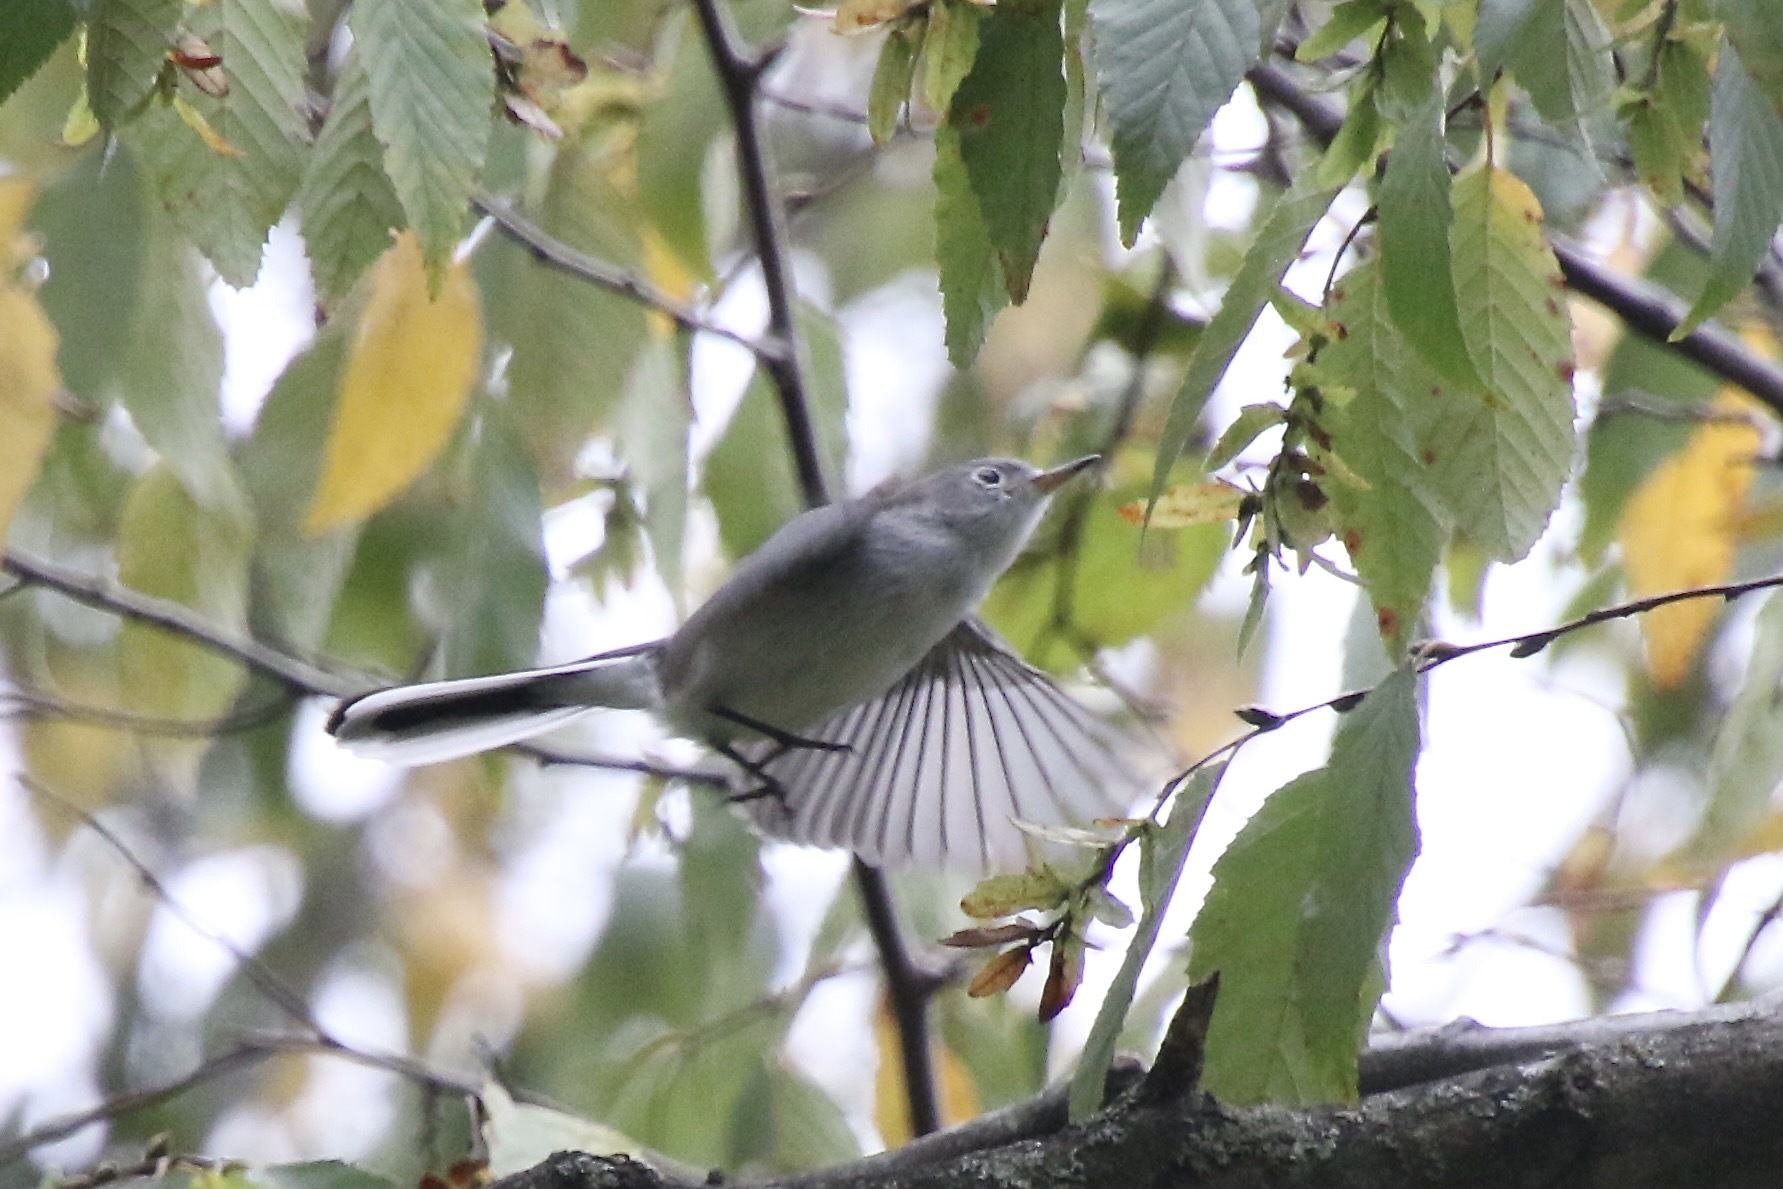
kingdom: Animalia
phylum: Chordata
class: Aves
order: Passeriformes
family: Polioptilidae
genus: Polioptila
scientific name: Polioptila caerulea
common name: Blue-gray gnatcatcher
